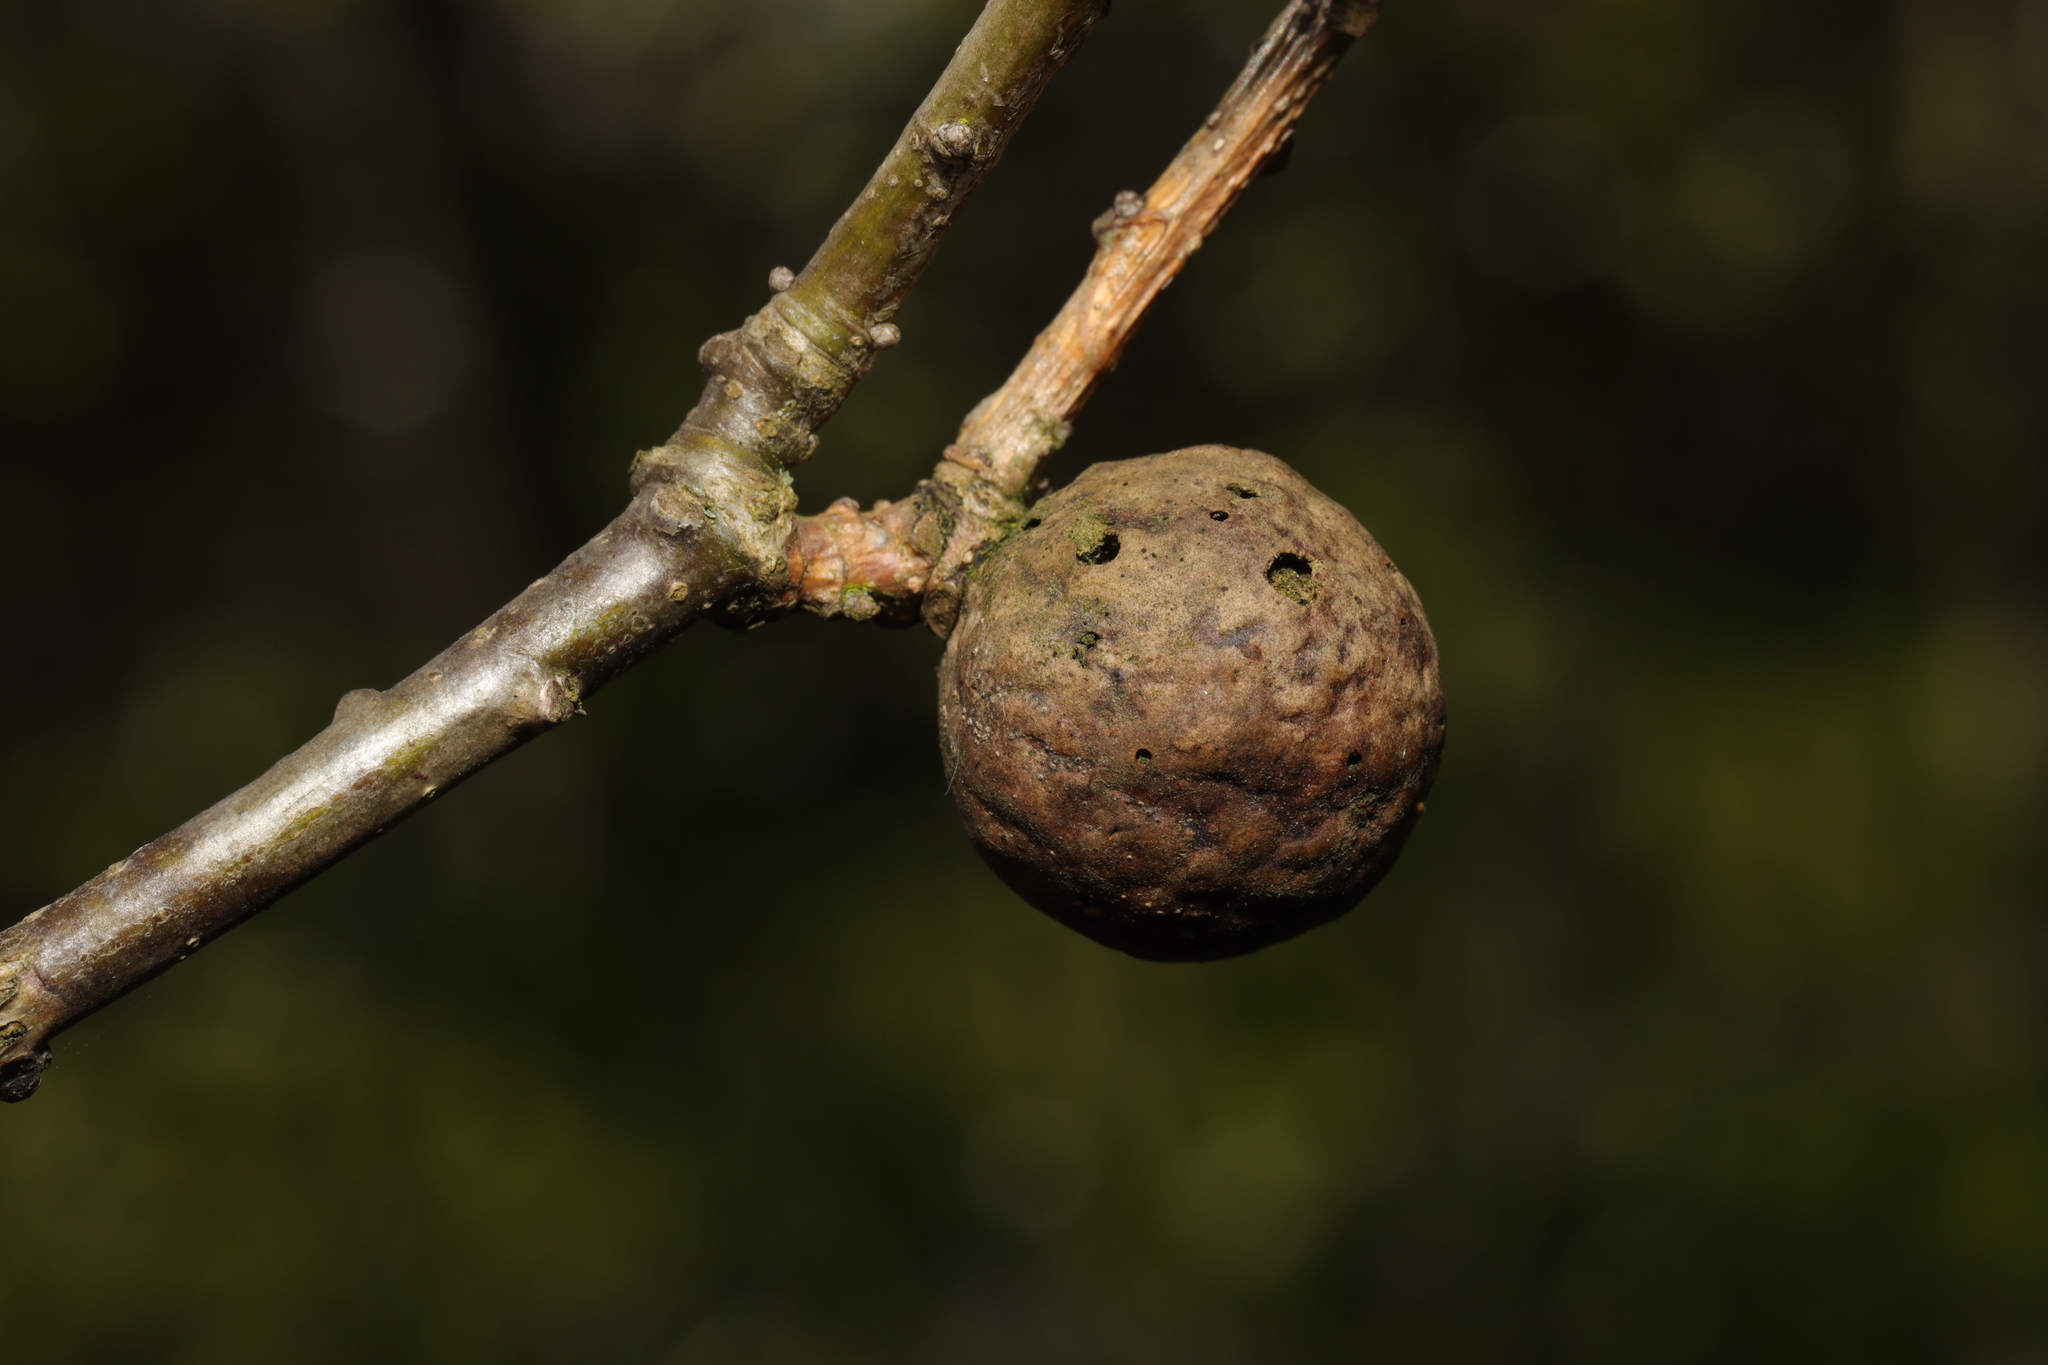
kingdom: Animalia
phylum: Arthropoda
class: Insecta
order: Hymenoptera
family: Cynipidae
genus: Andricus
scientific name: Andricus kollari
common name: Marble gall
